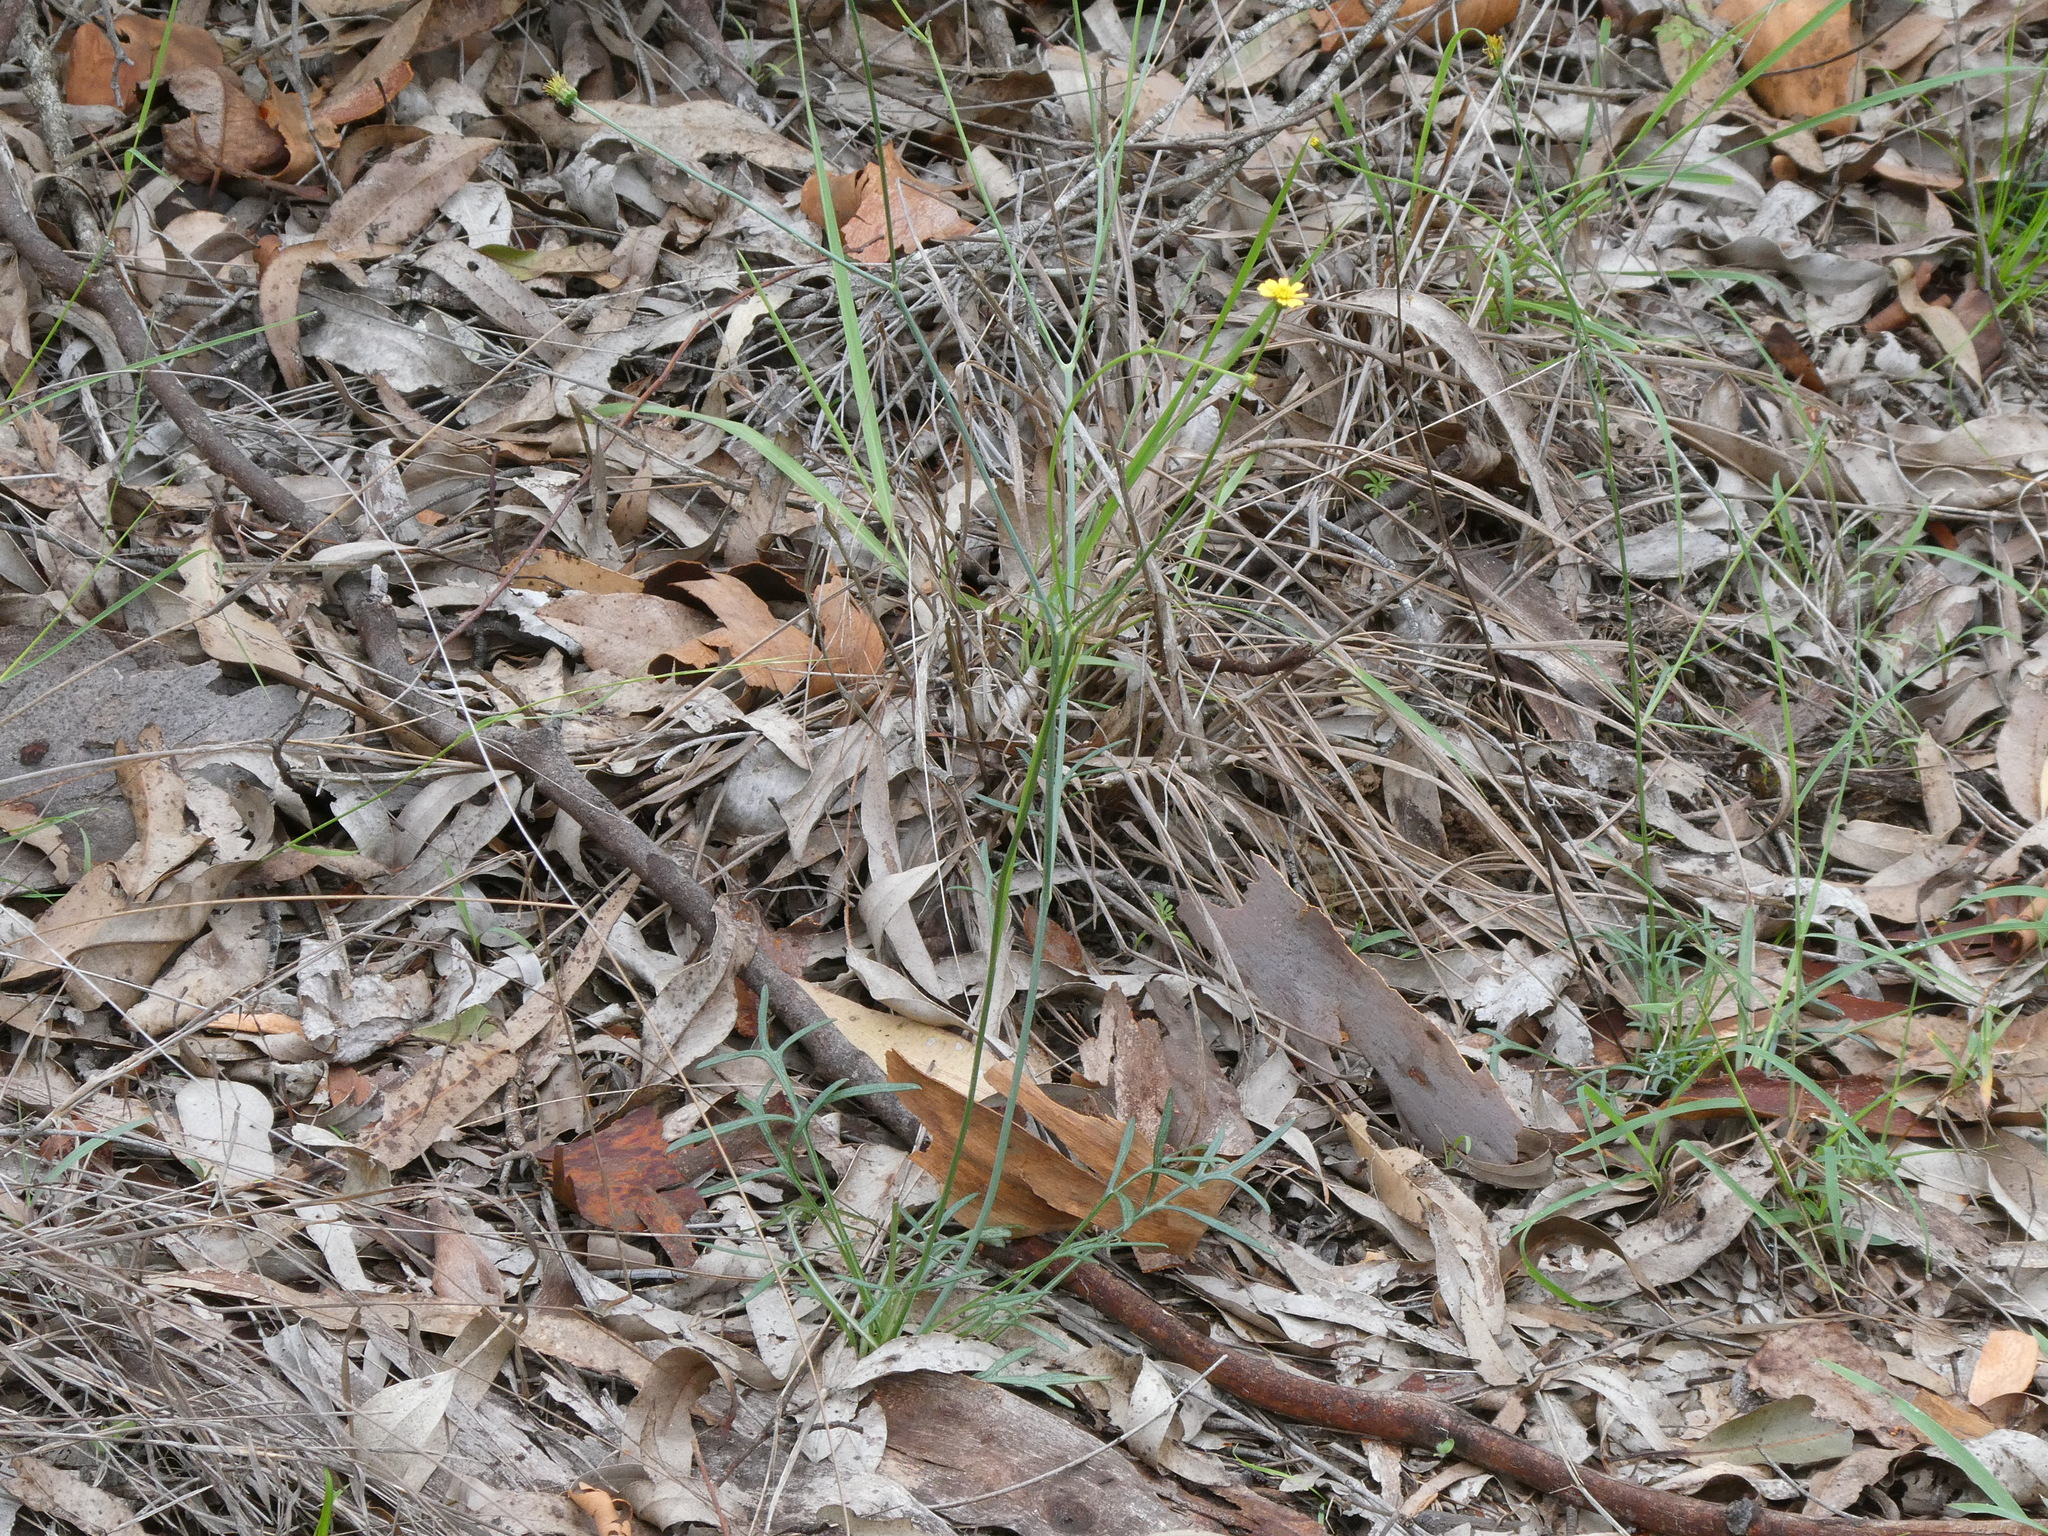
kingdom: Plantae
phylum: Tracheophyta
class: Magnoliopsida
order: Asterales
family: Asteraceae
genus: Glossocardia
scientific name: Glossocardia bidens
